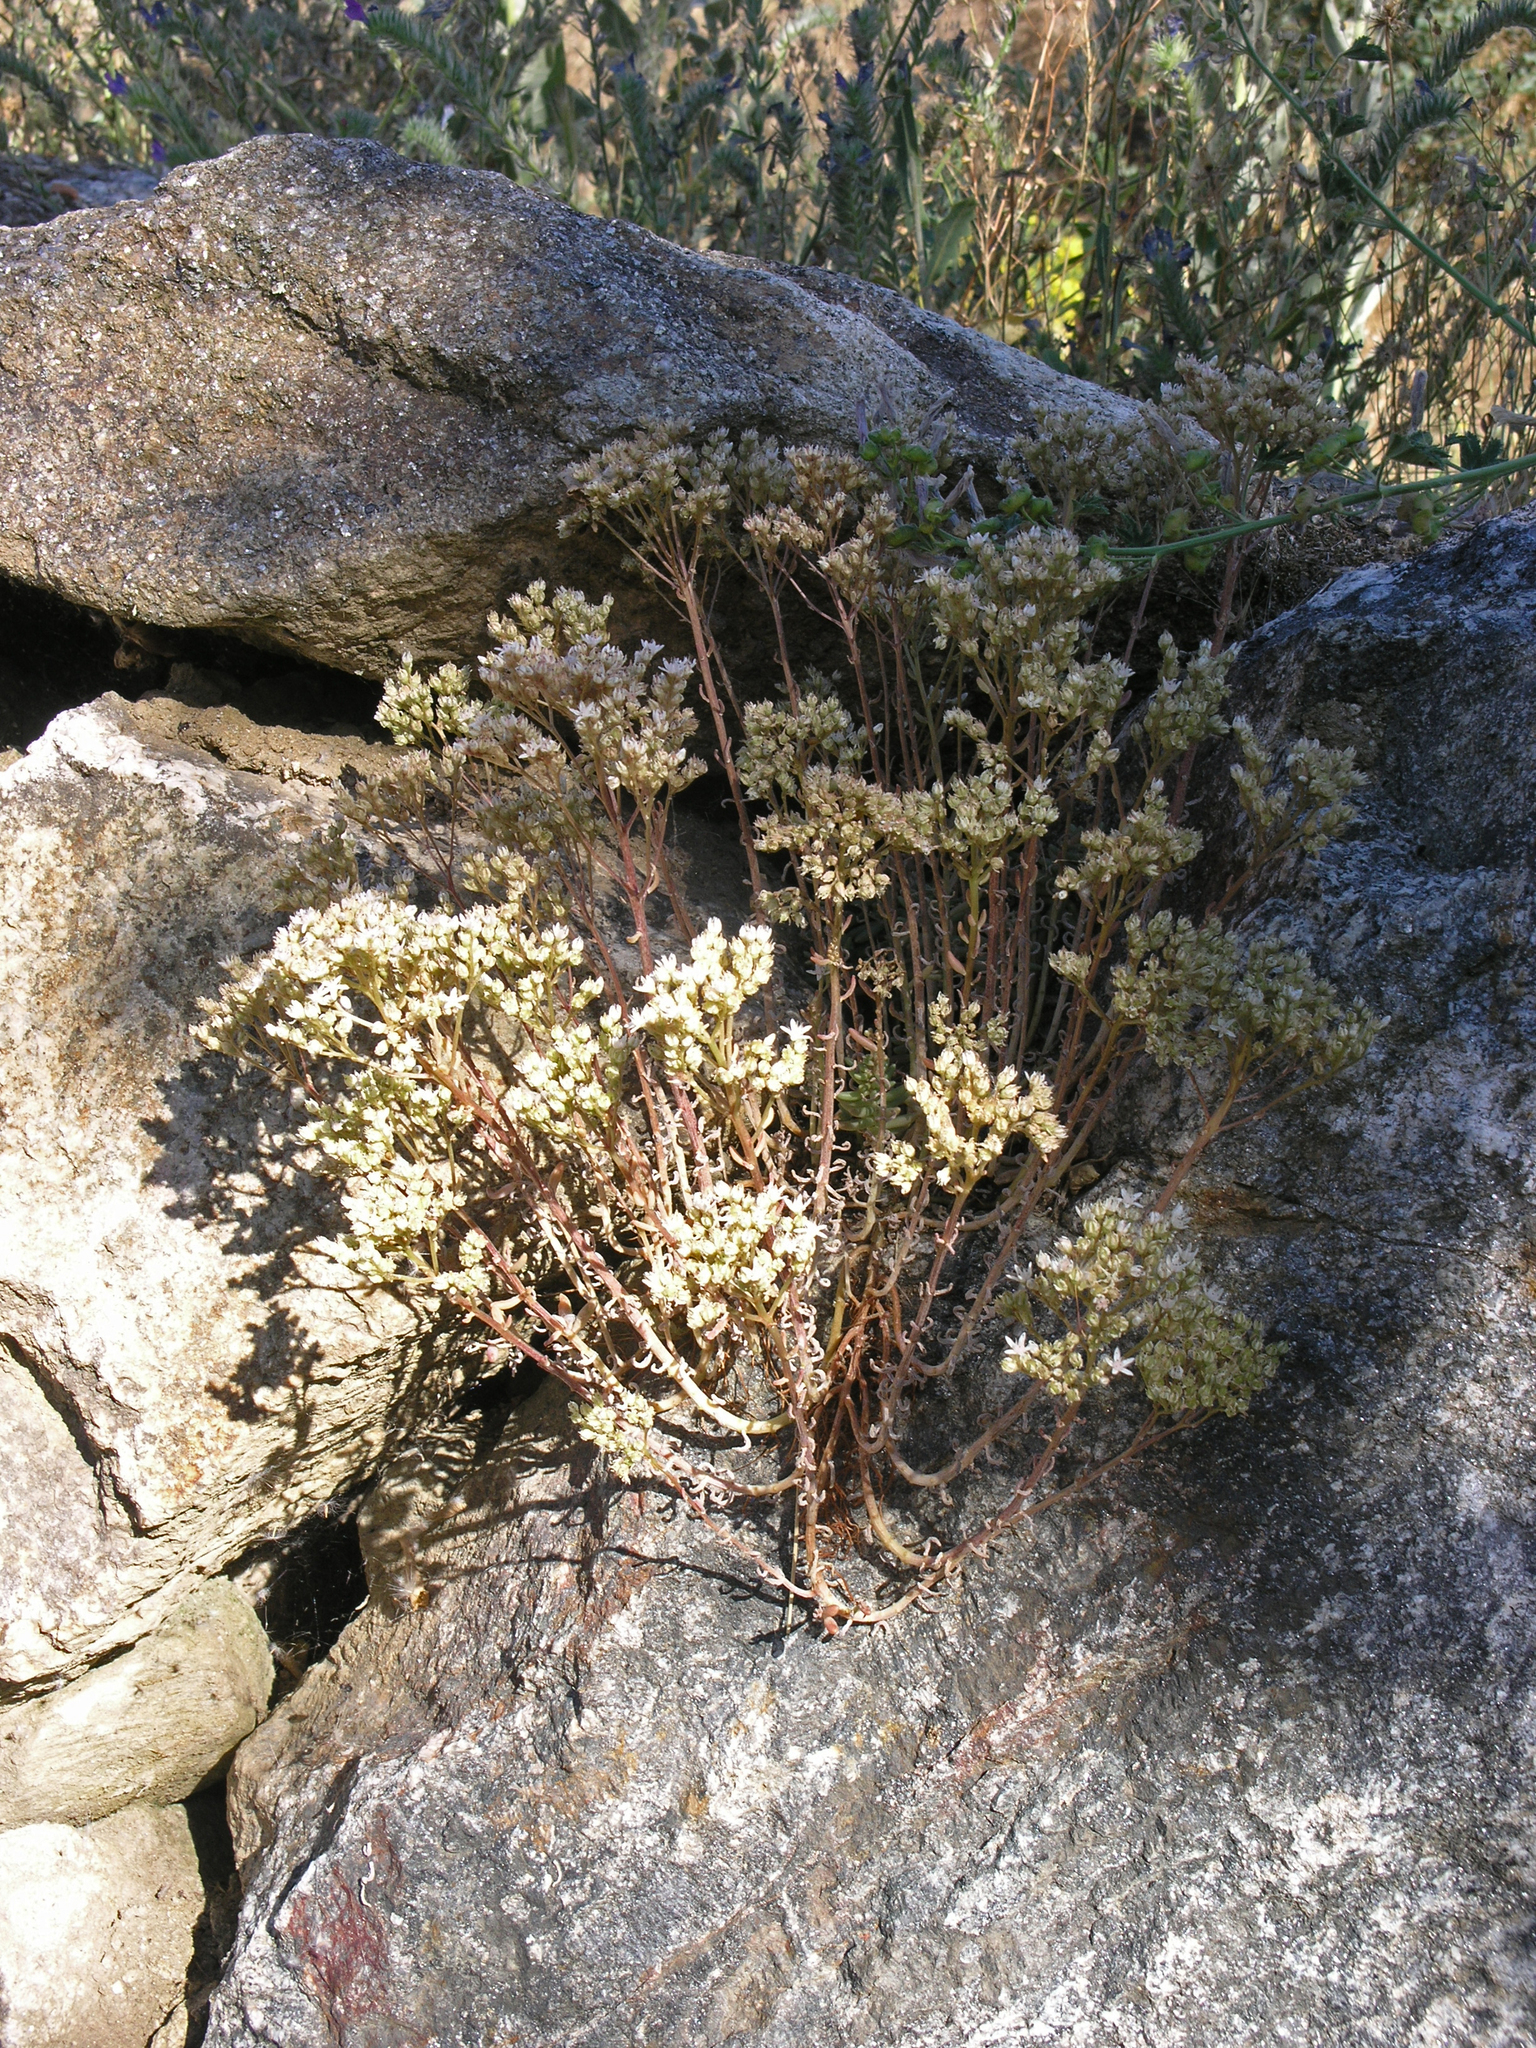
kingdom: Plantae
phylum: Tracheophyta
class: Magnoliopsida
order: Saxifragales
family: Crassulaceae
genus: Sedum
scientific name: Sedum album
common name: White stonecrop
